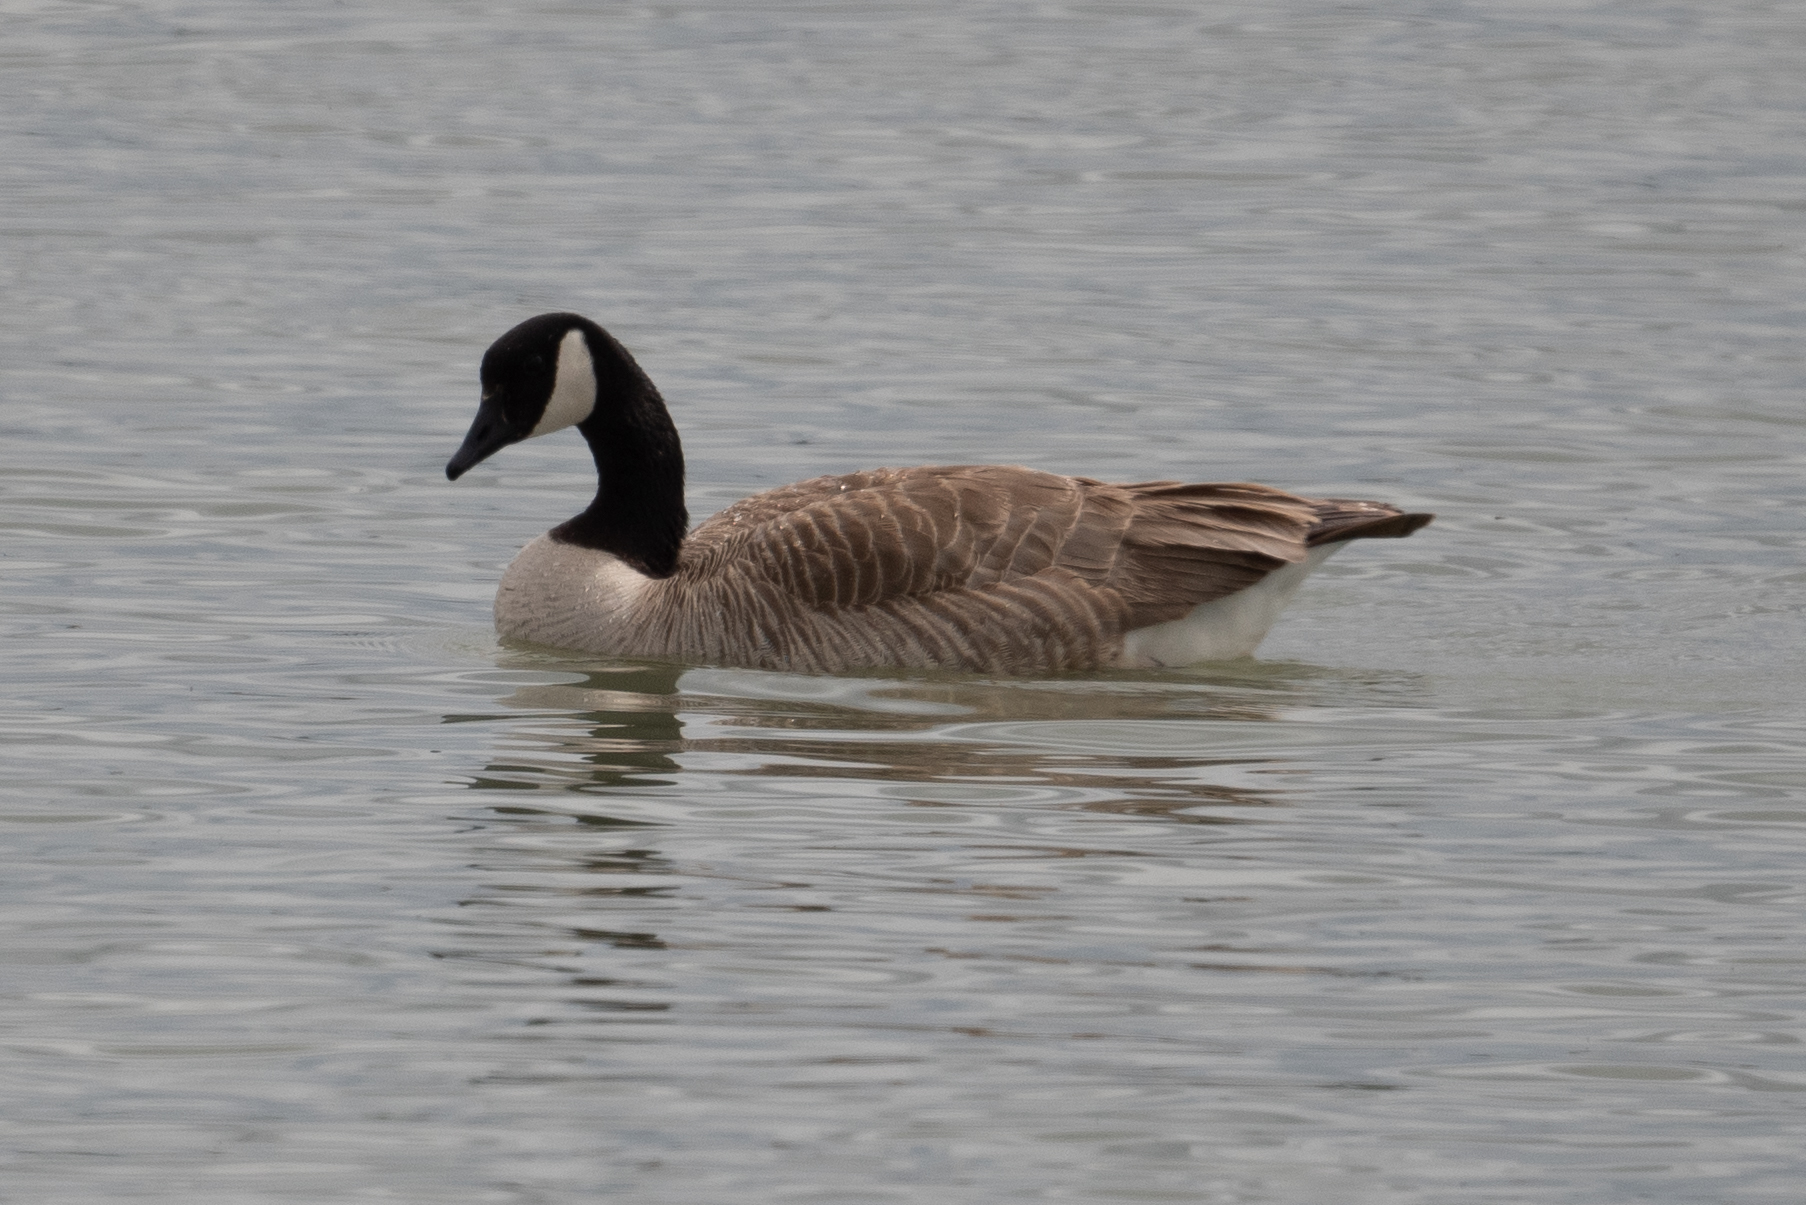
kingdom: Animalia
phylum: Chordata
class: Aves
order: Anseriformes
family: Anatidae
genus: Branta
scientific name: Branta canadensis
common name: Canada goose
